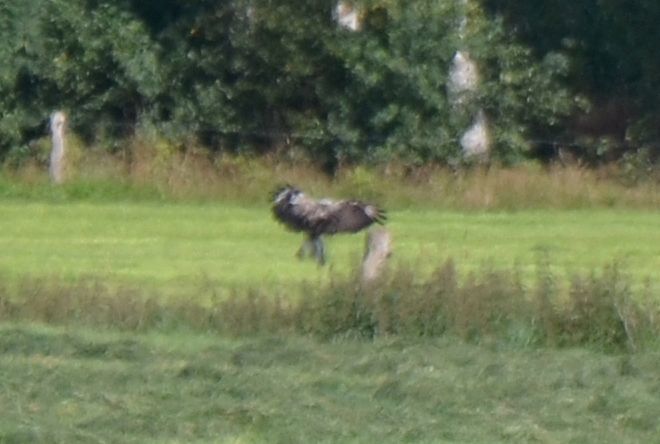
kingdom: Animalia
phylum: Chordata
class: Aves
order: Accipitriformes
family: Accipitridae
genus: Buteo
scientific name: Buteo buteo
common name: Common buzzard
